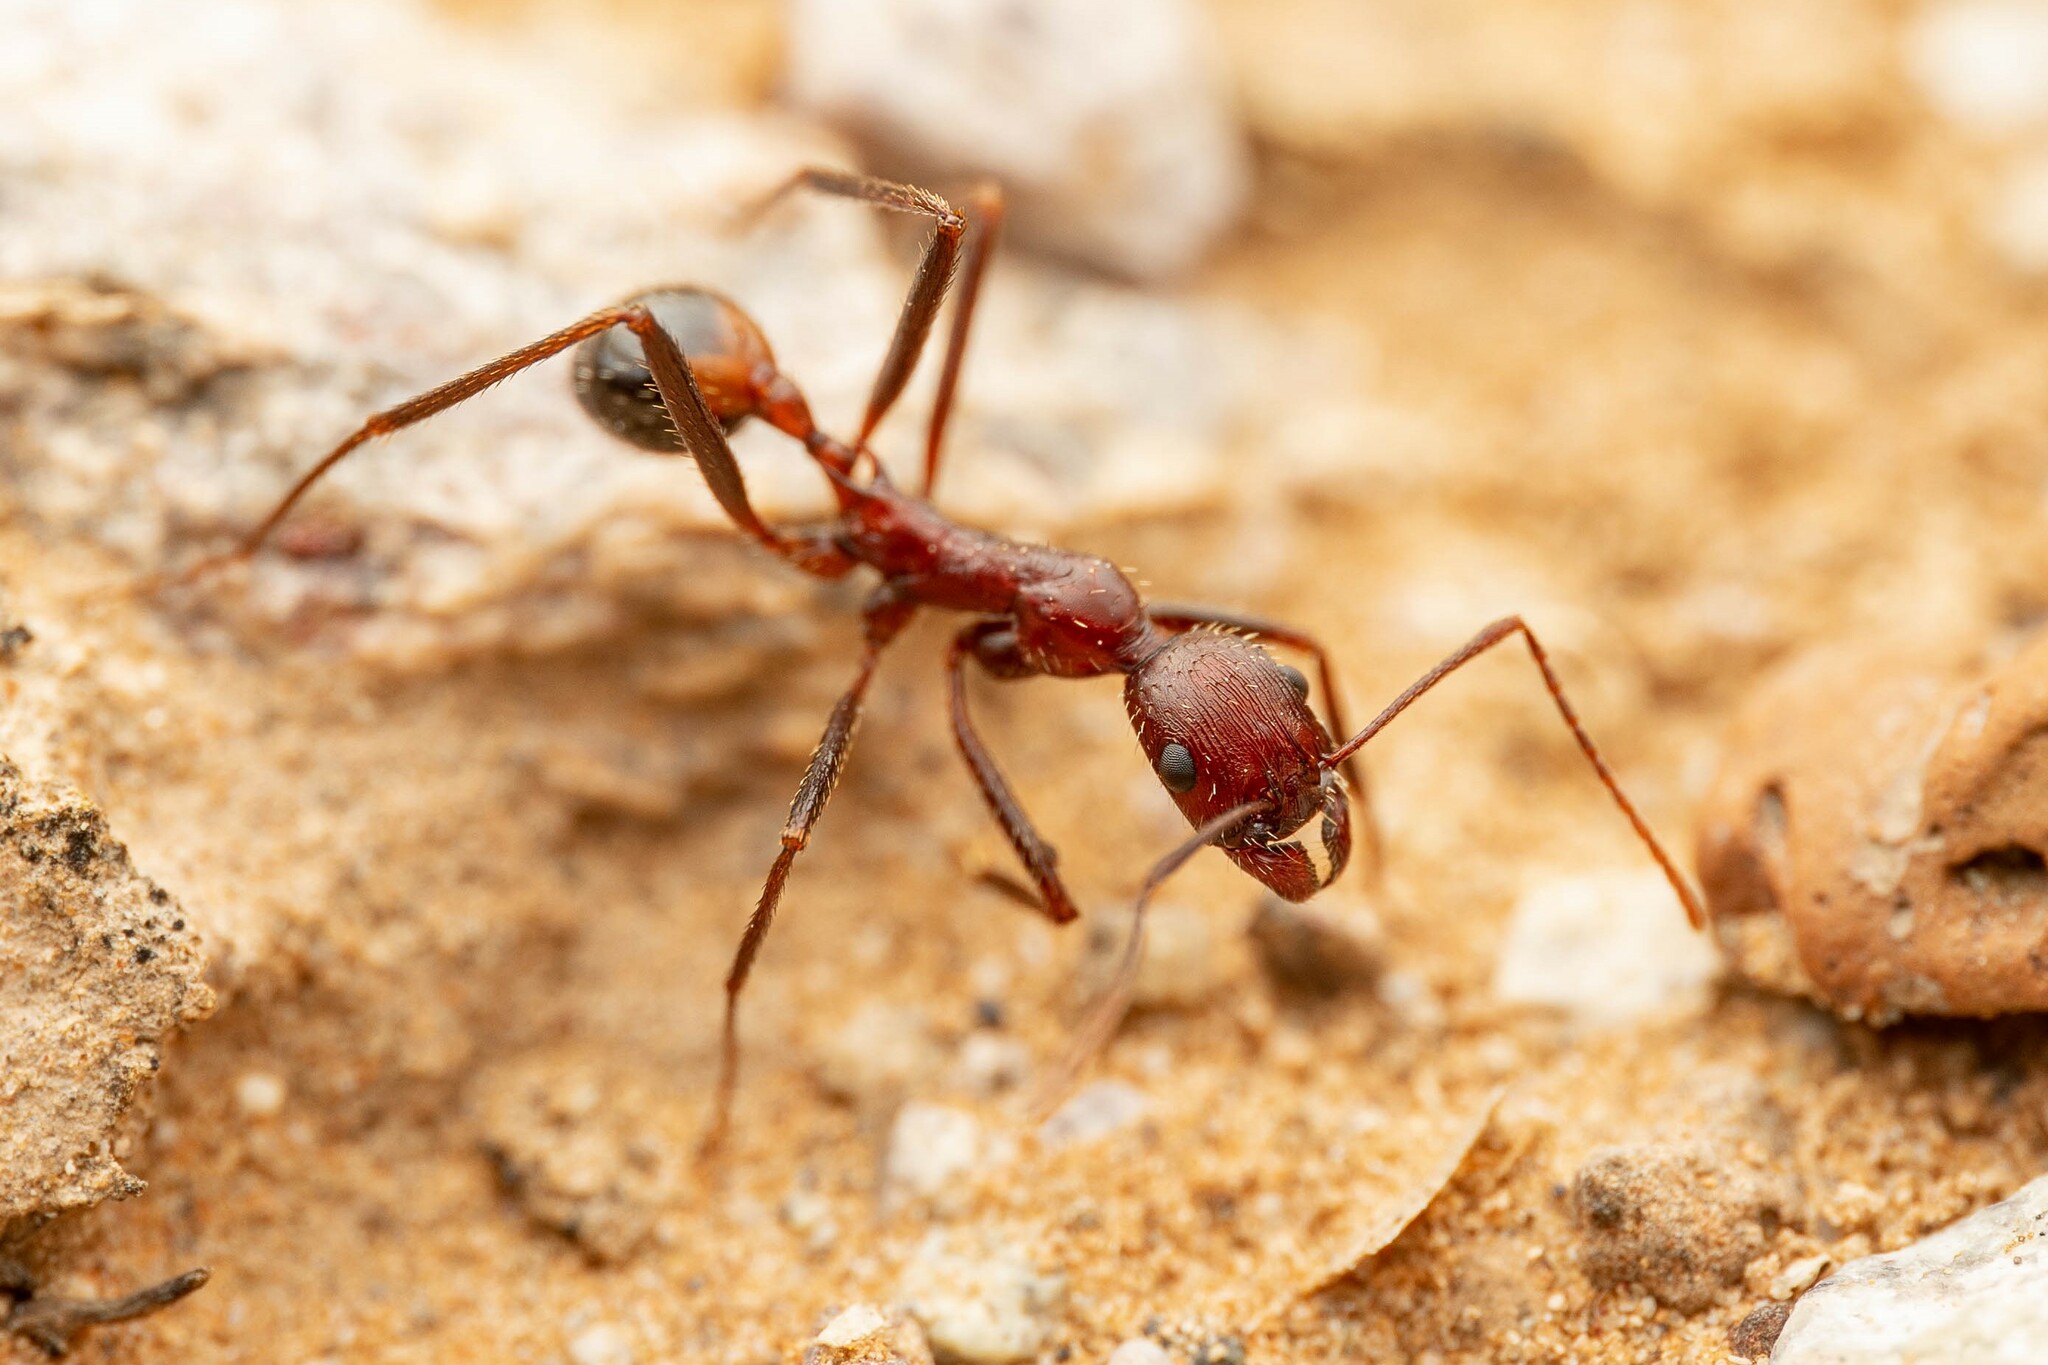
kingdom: Animalia
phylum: Arthropoda
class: Insecta
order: Hymenoptera
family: Formicidae
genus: Novomessor
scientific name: Novomessor cockerelli
